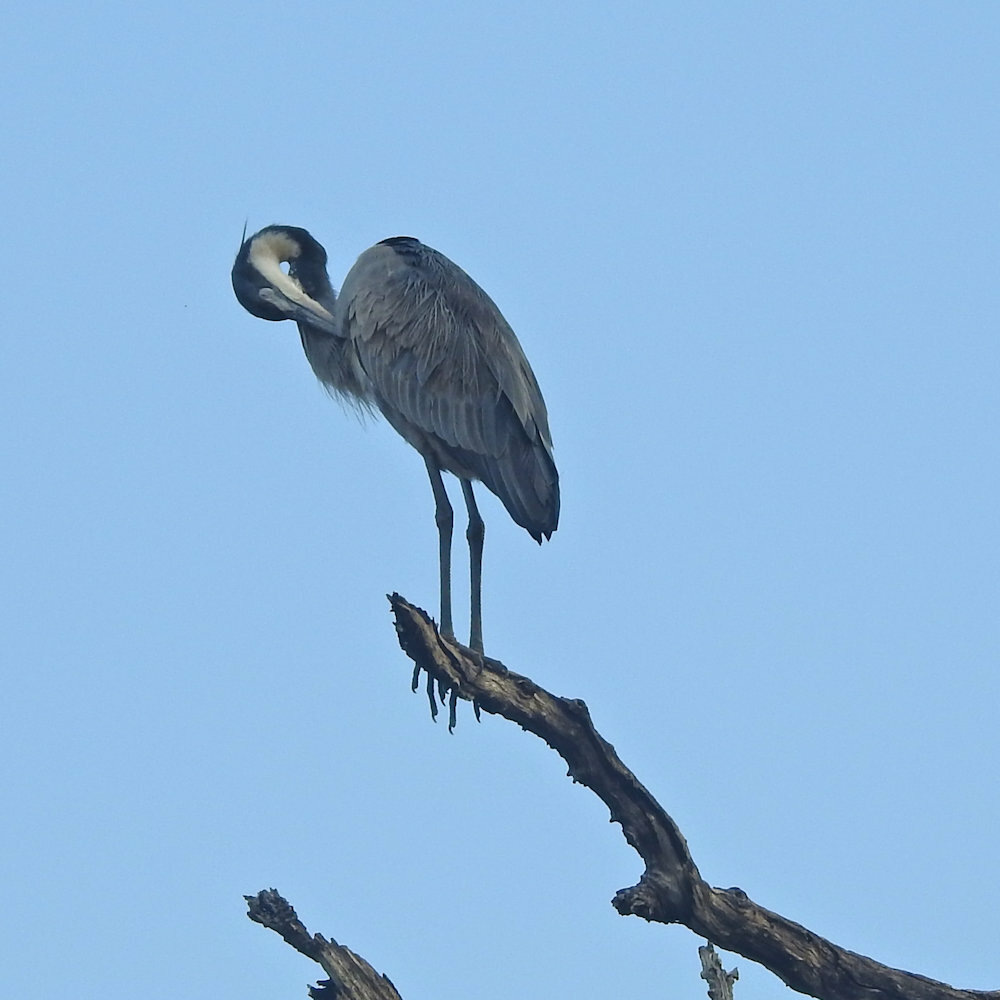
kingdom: Animalia
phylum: Chordata
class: Aves
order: Pelecaniformes
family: Ardeidae
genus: Ardea
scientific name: Ardea melanocephala
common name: Black-headed heron
